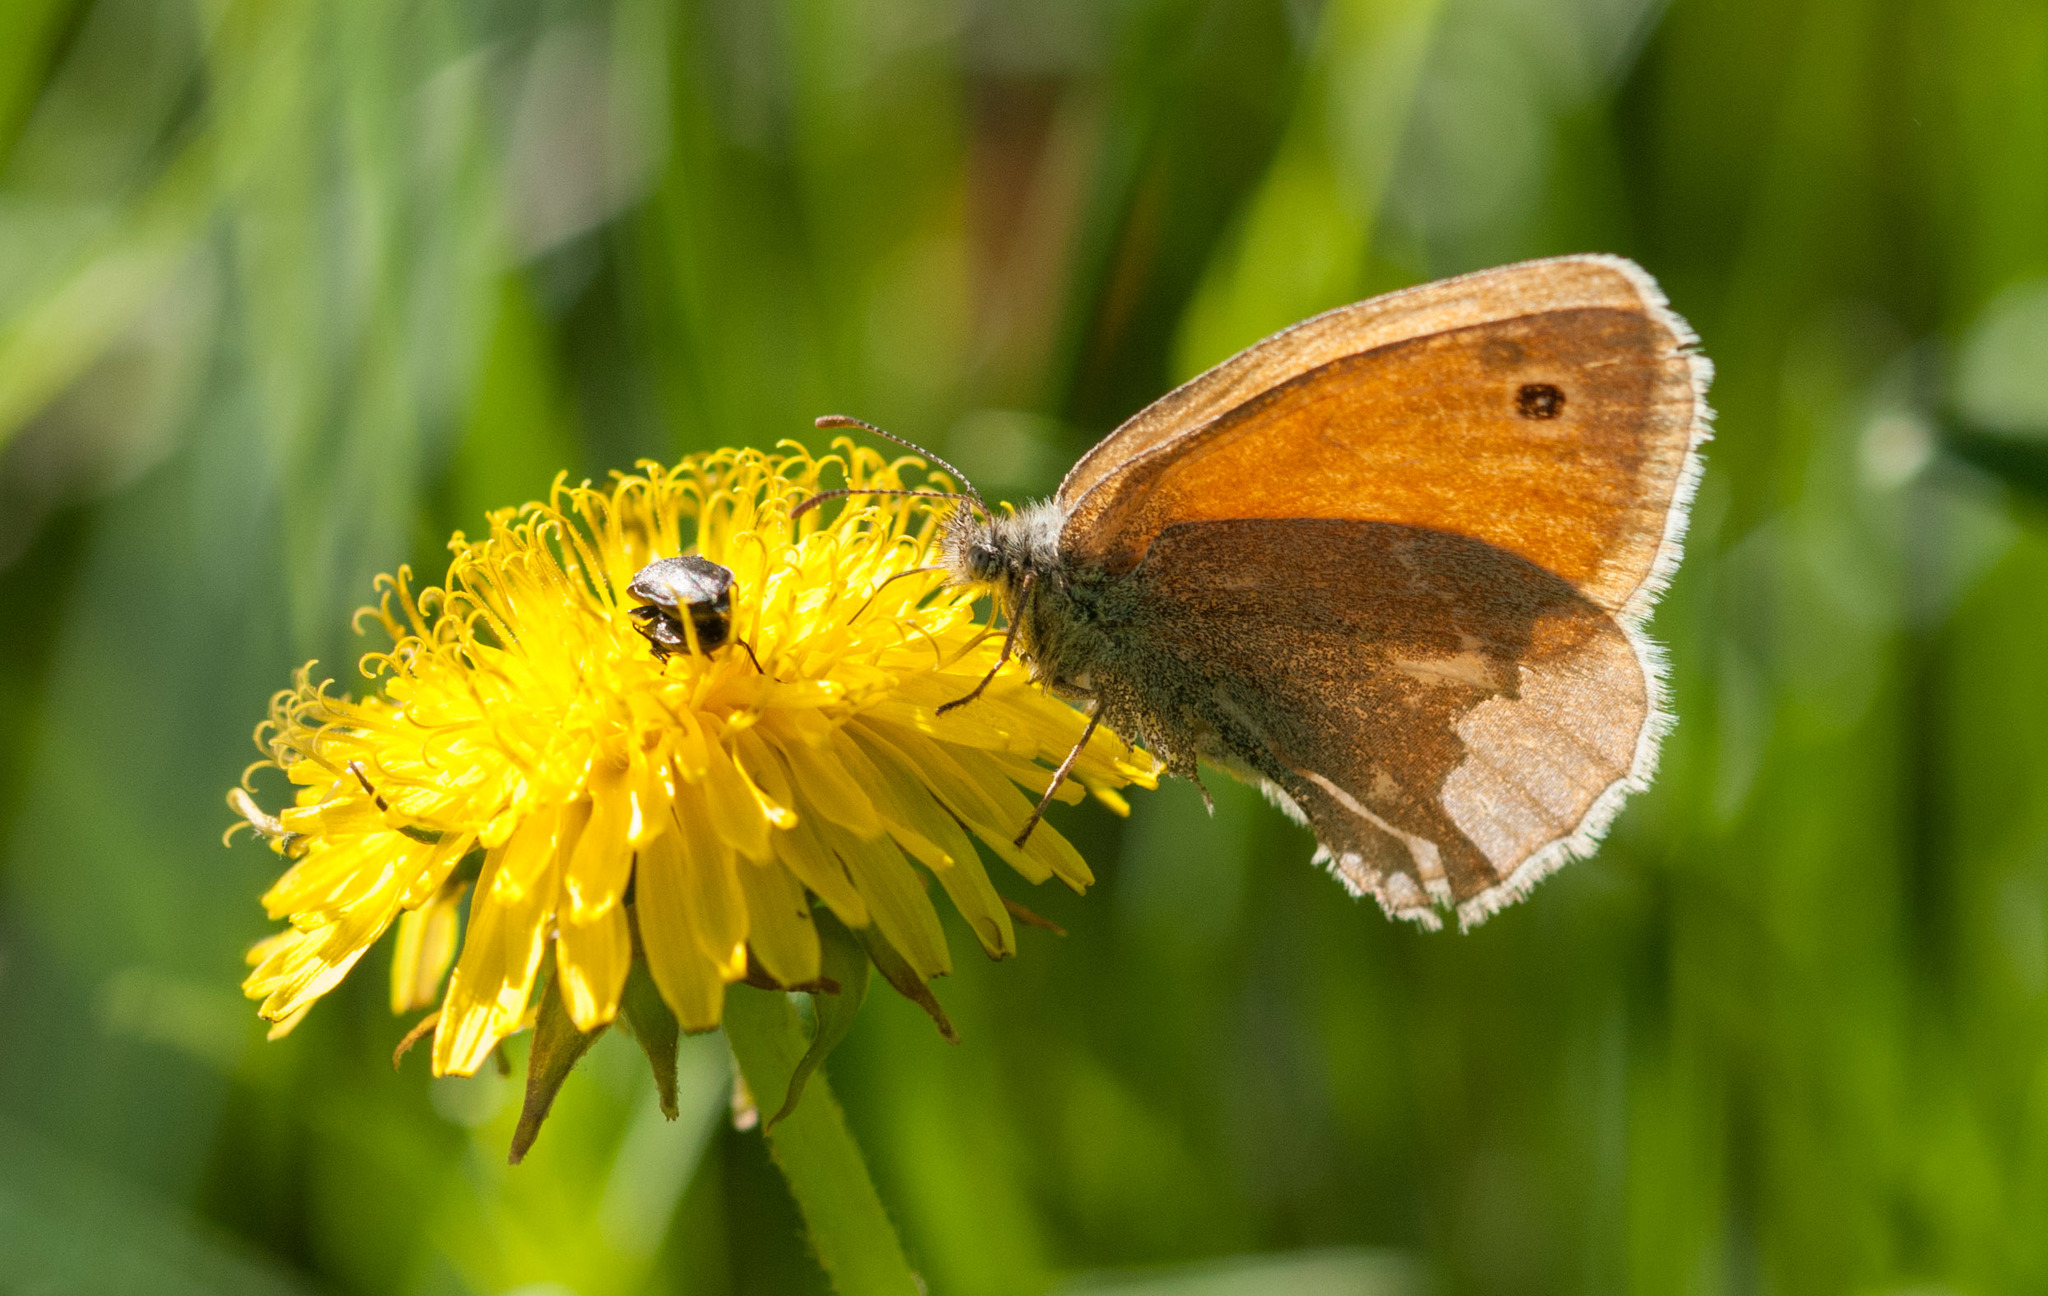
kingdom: Animalia
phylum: Arthropoda
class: Insecta
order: Lepidoptera
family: Nymphalidae
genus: Coenonympha
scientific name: Coenonympha california
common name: Common ringlet
